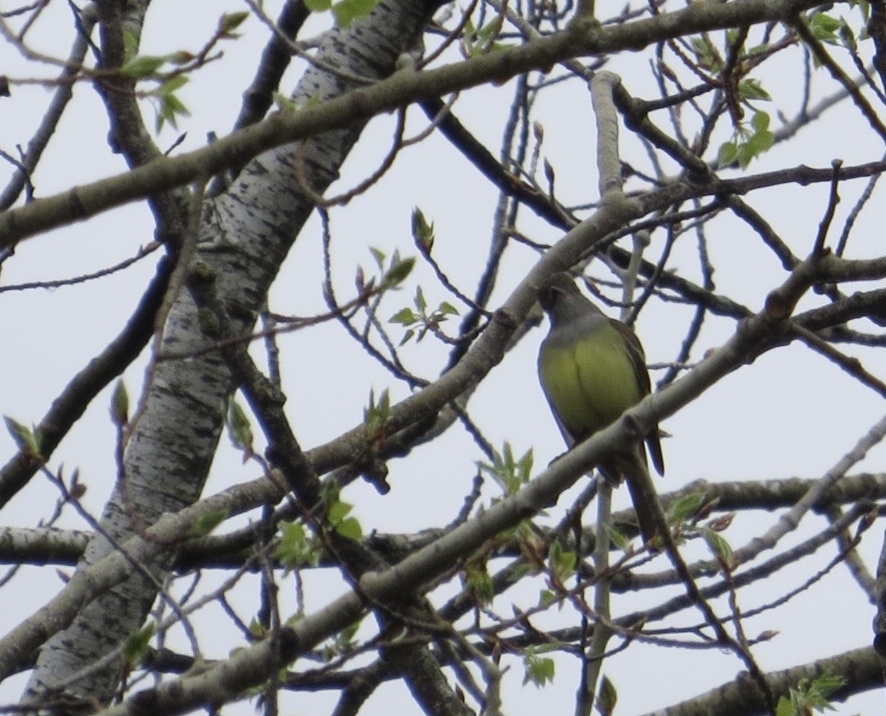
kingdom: Animalia
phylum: Chordata
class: Aves
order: Passeriformes
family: Tyrannidae
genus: Myiarchus
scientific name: Myiarchus crinitus
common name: Great crested flycatcher
